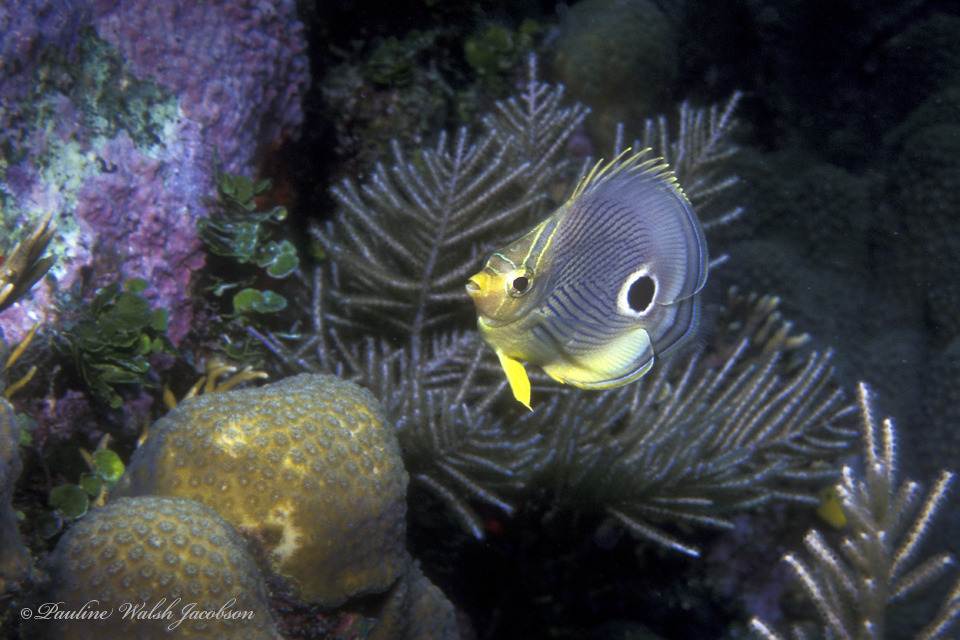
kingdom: Animalia
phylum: Chordata
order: Perciformes
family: Chaetodontidae
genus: Chaetodon
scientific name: Chaetodon capistratus
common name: Kete
